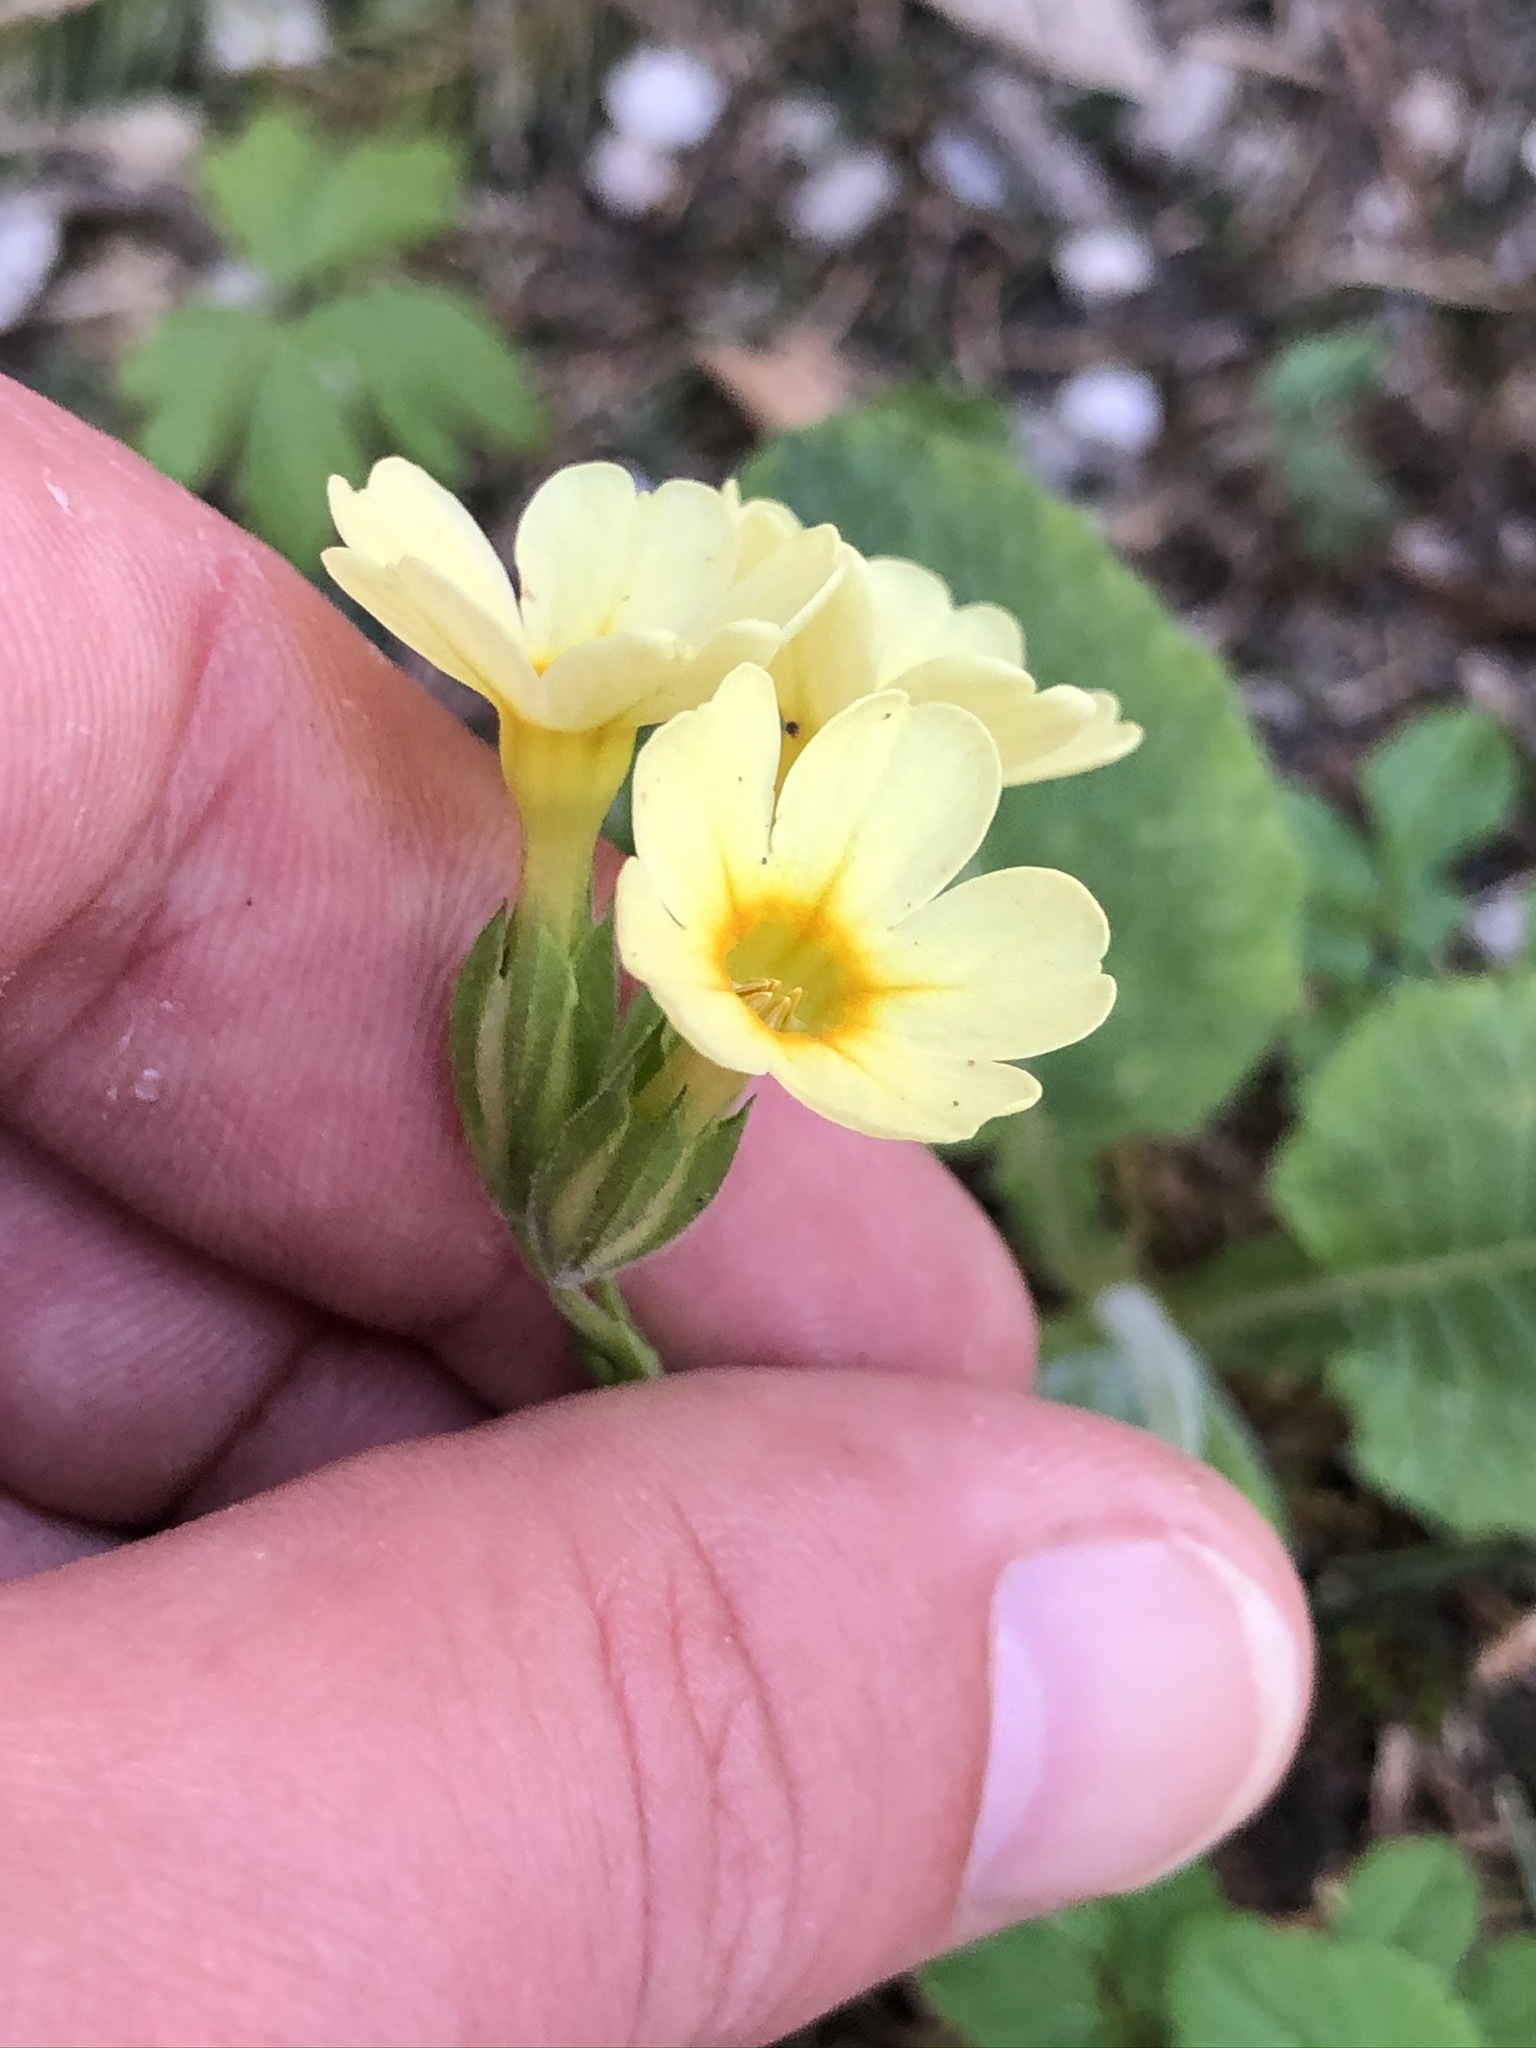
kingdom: Plantae
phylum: Tracheophyta
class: Magnoliopsida
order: Ericales
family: Primulaceae
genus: Primula
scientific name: Primula elatior
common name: Oxlip
